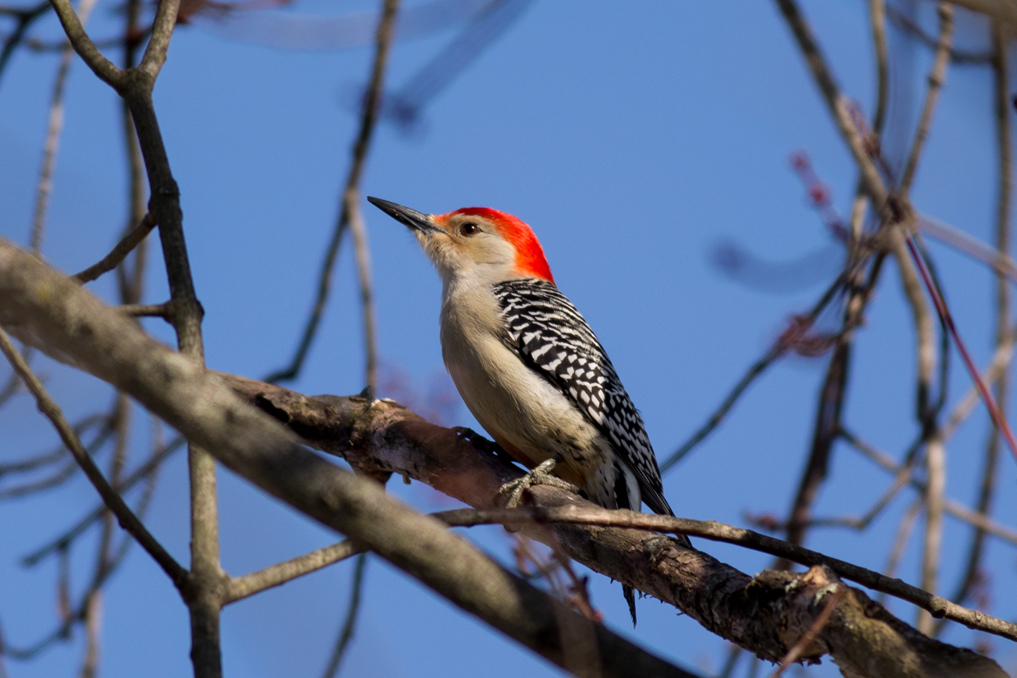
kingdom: Animalia
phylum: Chordata
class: Aves
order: Piciformes
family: Picidae
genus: Melanerpes
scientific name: Melanerpes carolinus
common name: Red-bellied woodpecker
